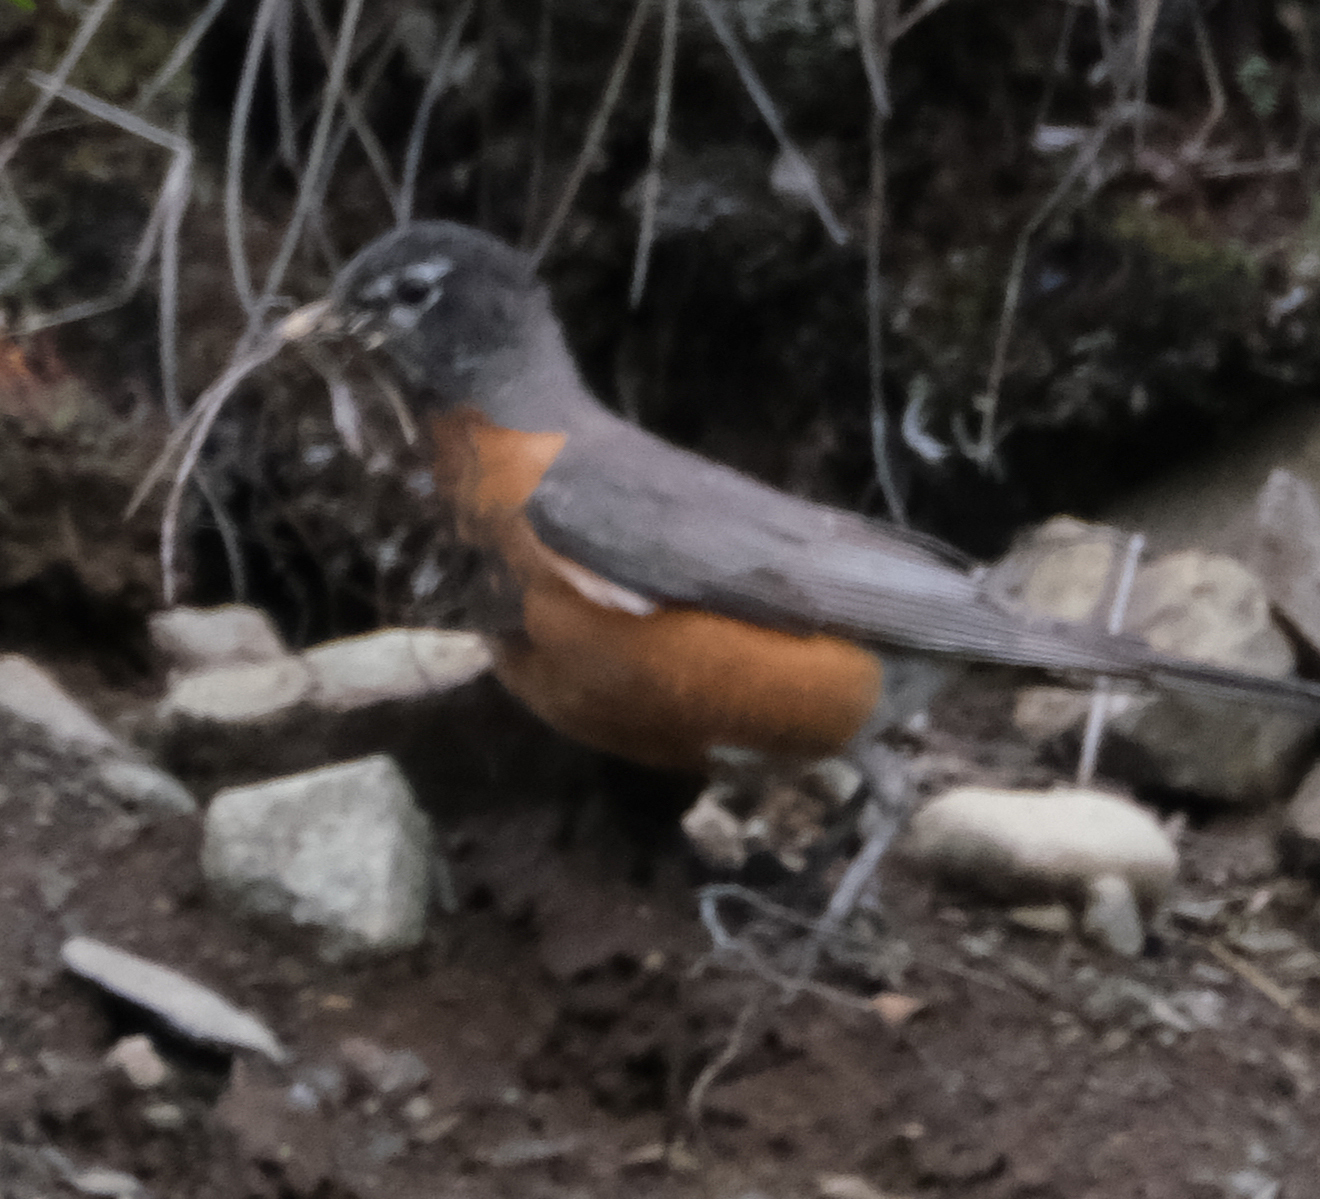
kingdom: Animalia
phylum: Chordata
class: Aves
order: Passeriformes
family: Turdidae
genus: Turdus
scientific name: Turdus migratorius
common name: American robin
